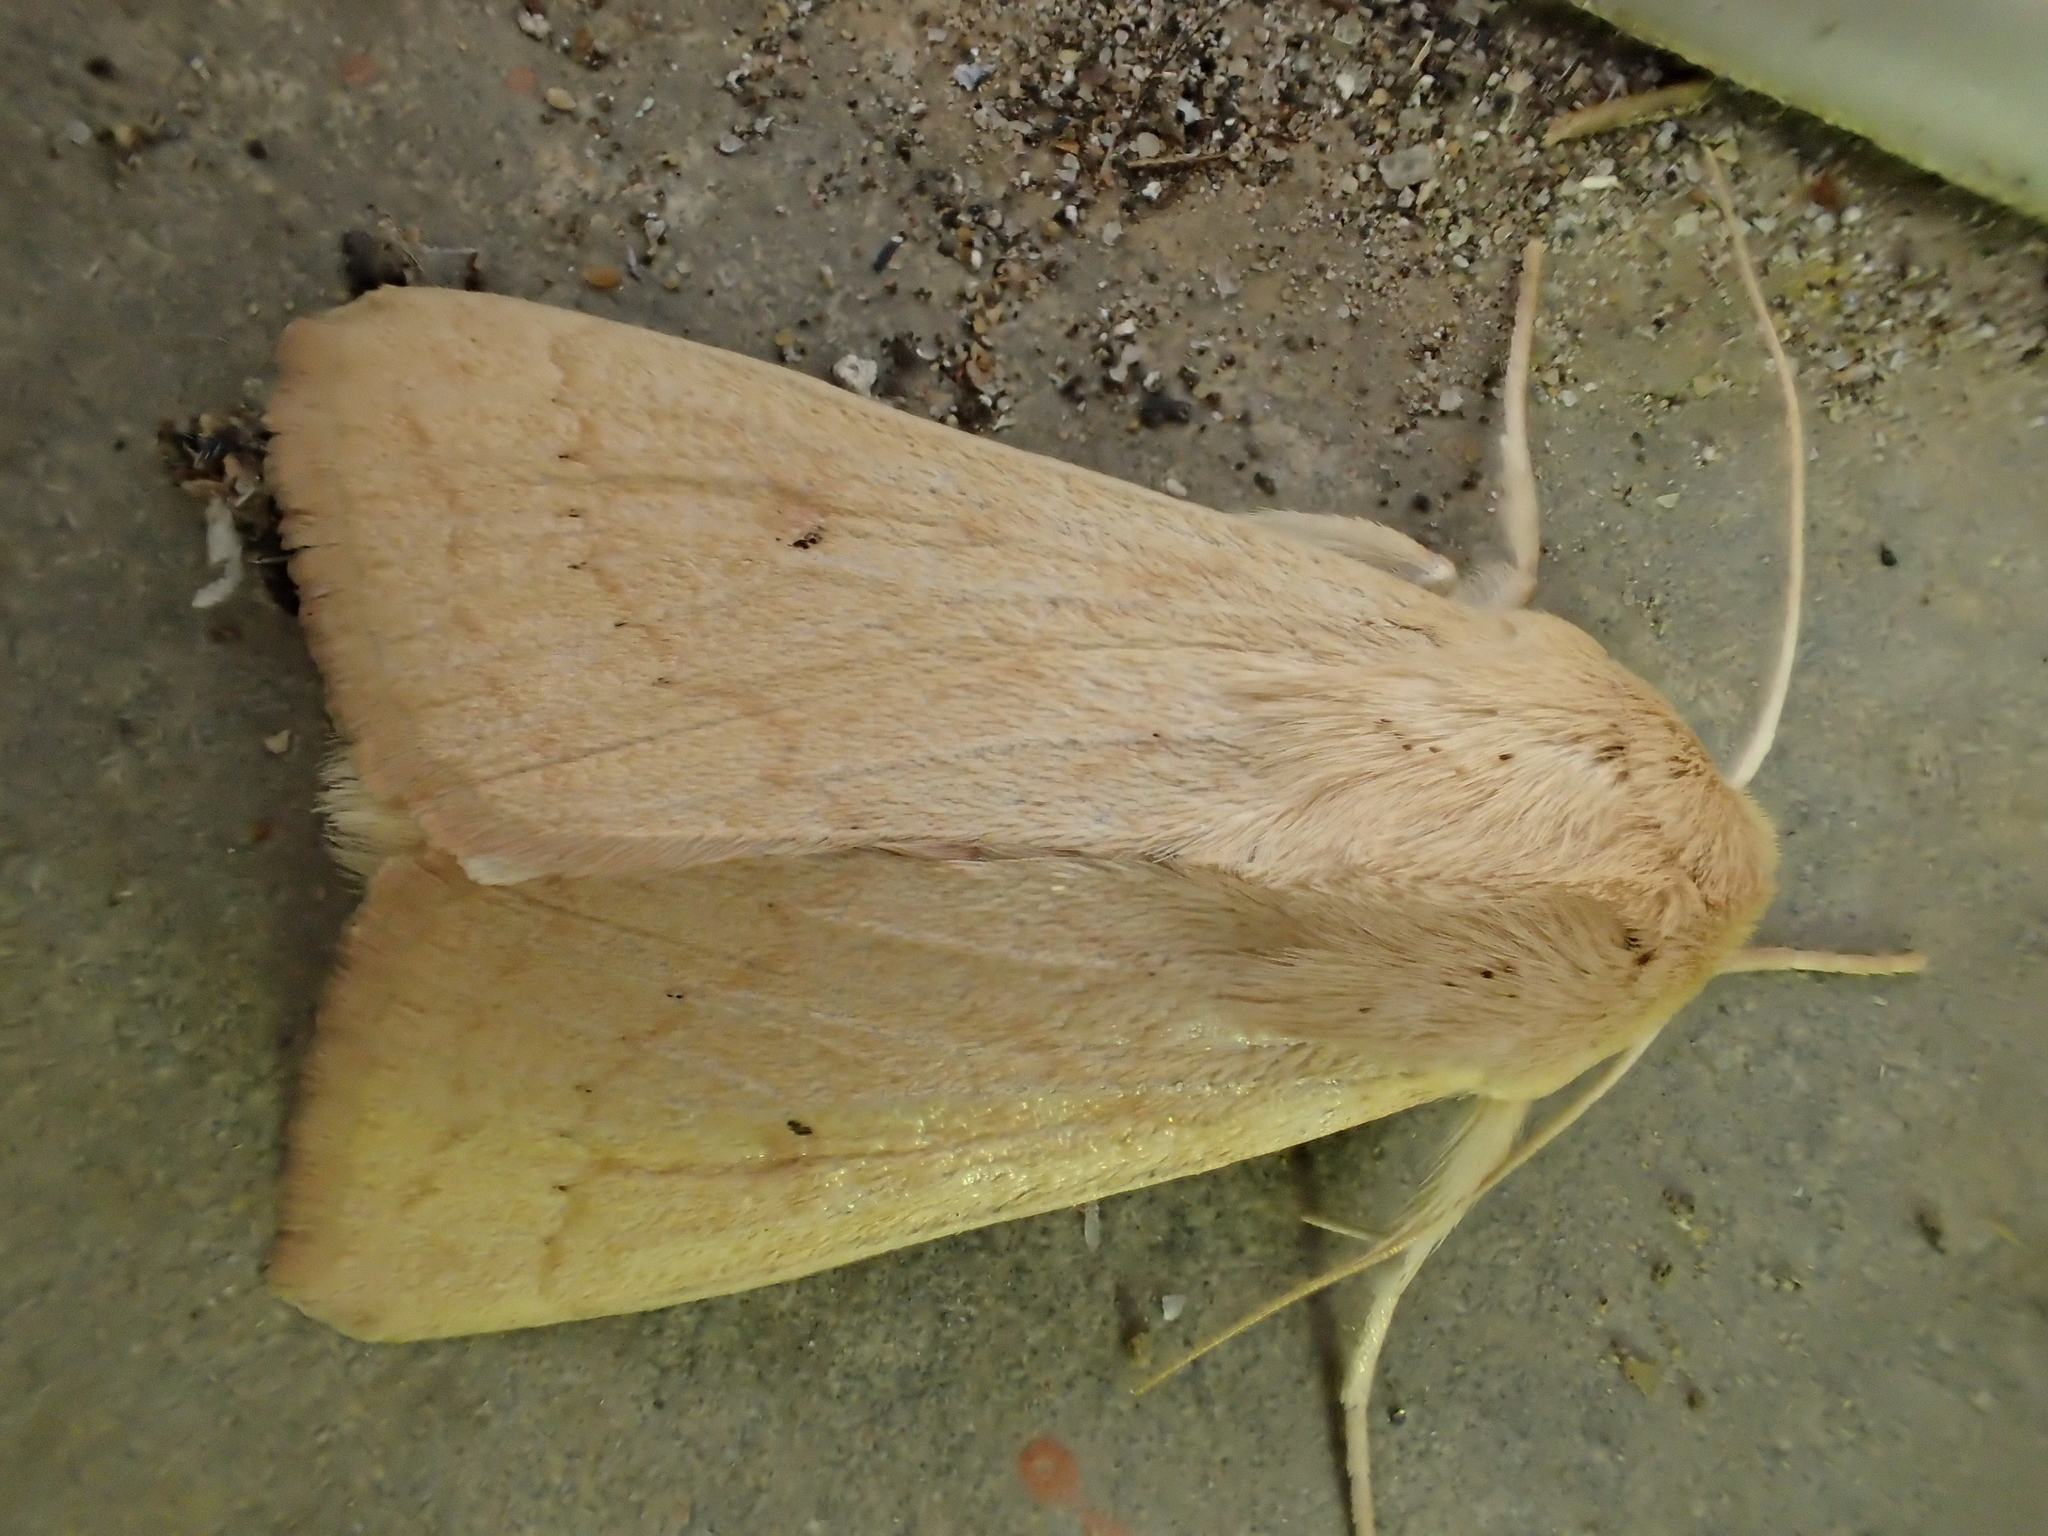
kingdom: Animalia
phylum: Arthropoda
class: Insecta
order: Lepidoptera
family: Noctuidae
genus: Mythimna
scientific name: Mythimna vitellina
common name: Delicate
